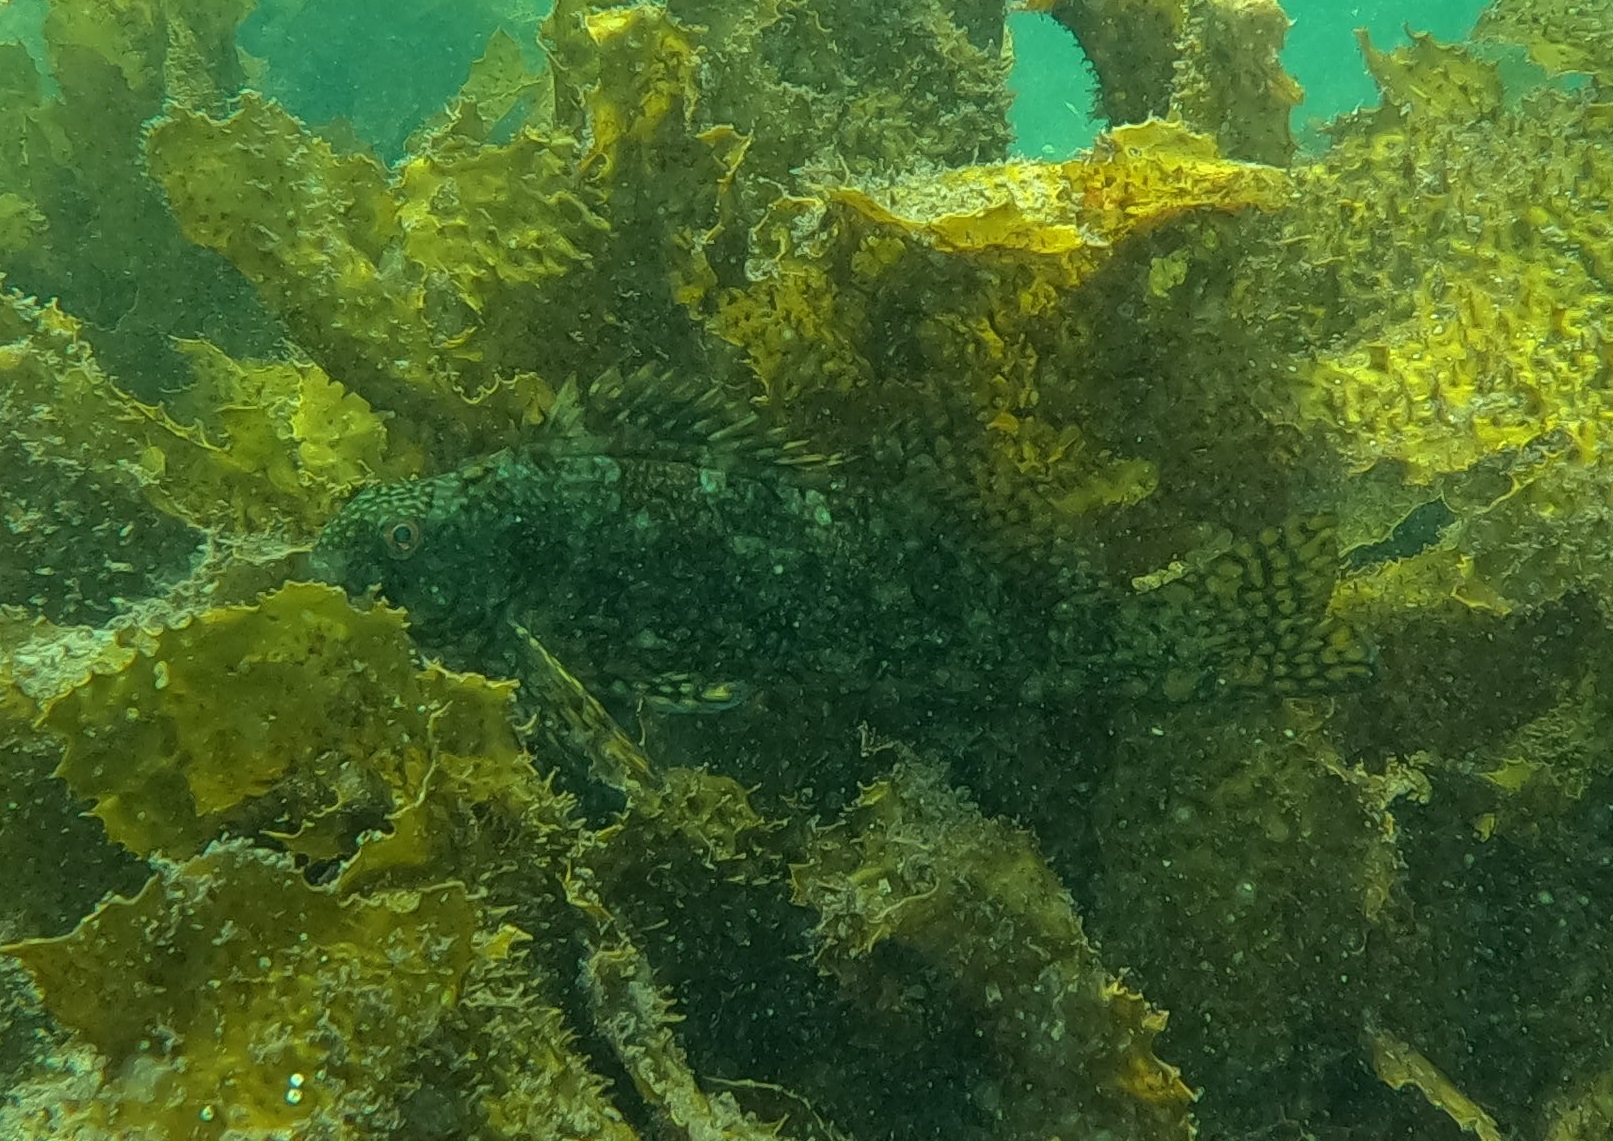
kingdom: Animalia
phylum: Chordata
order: Perciformes
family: Aplodactylidae
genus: Aplodactylus
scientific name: Aplodactylus lophodon
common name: Cockatoo fish
